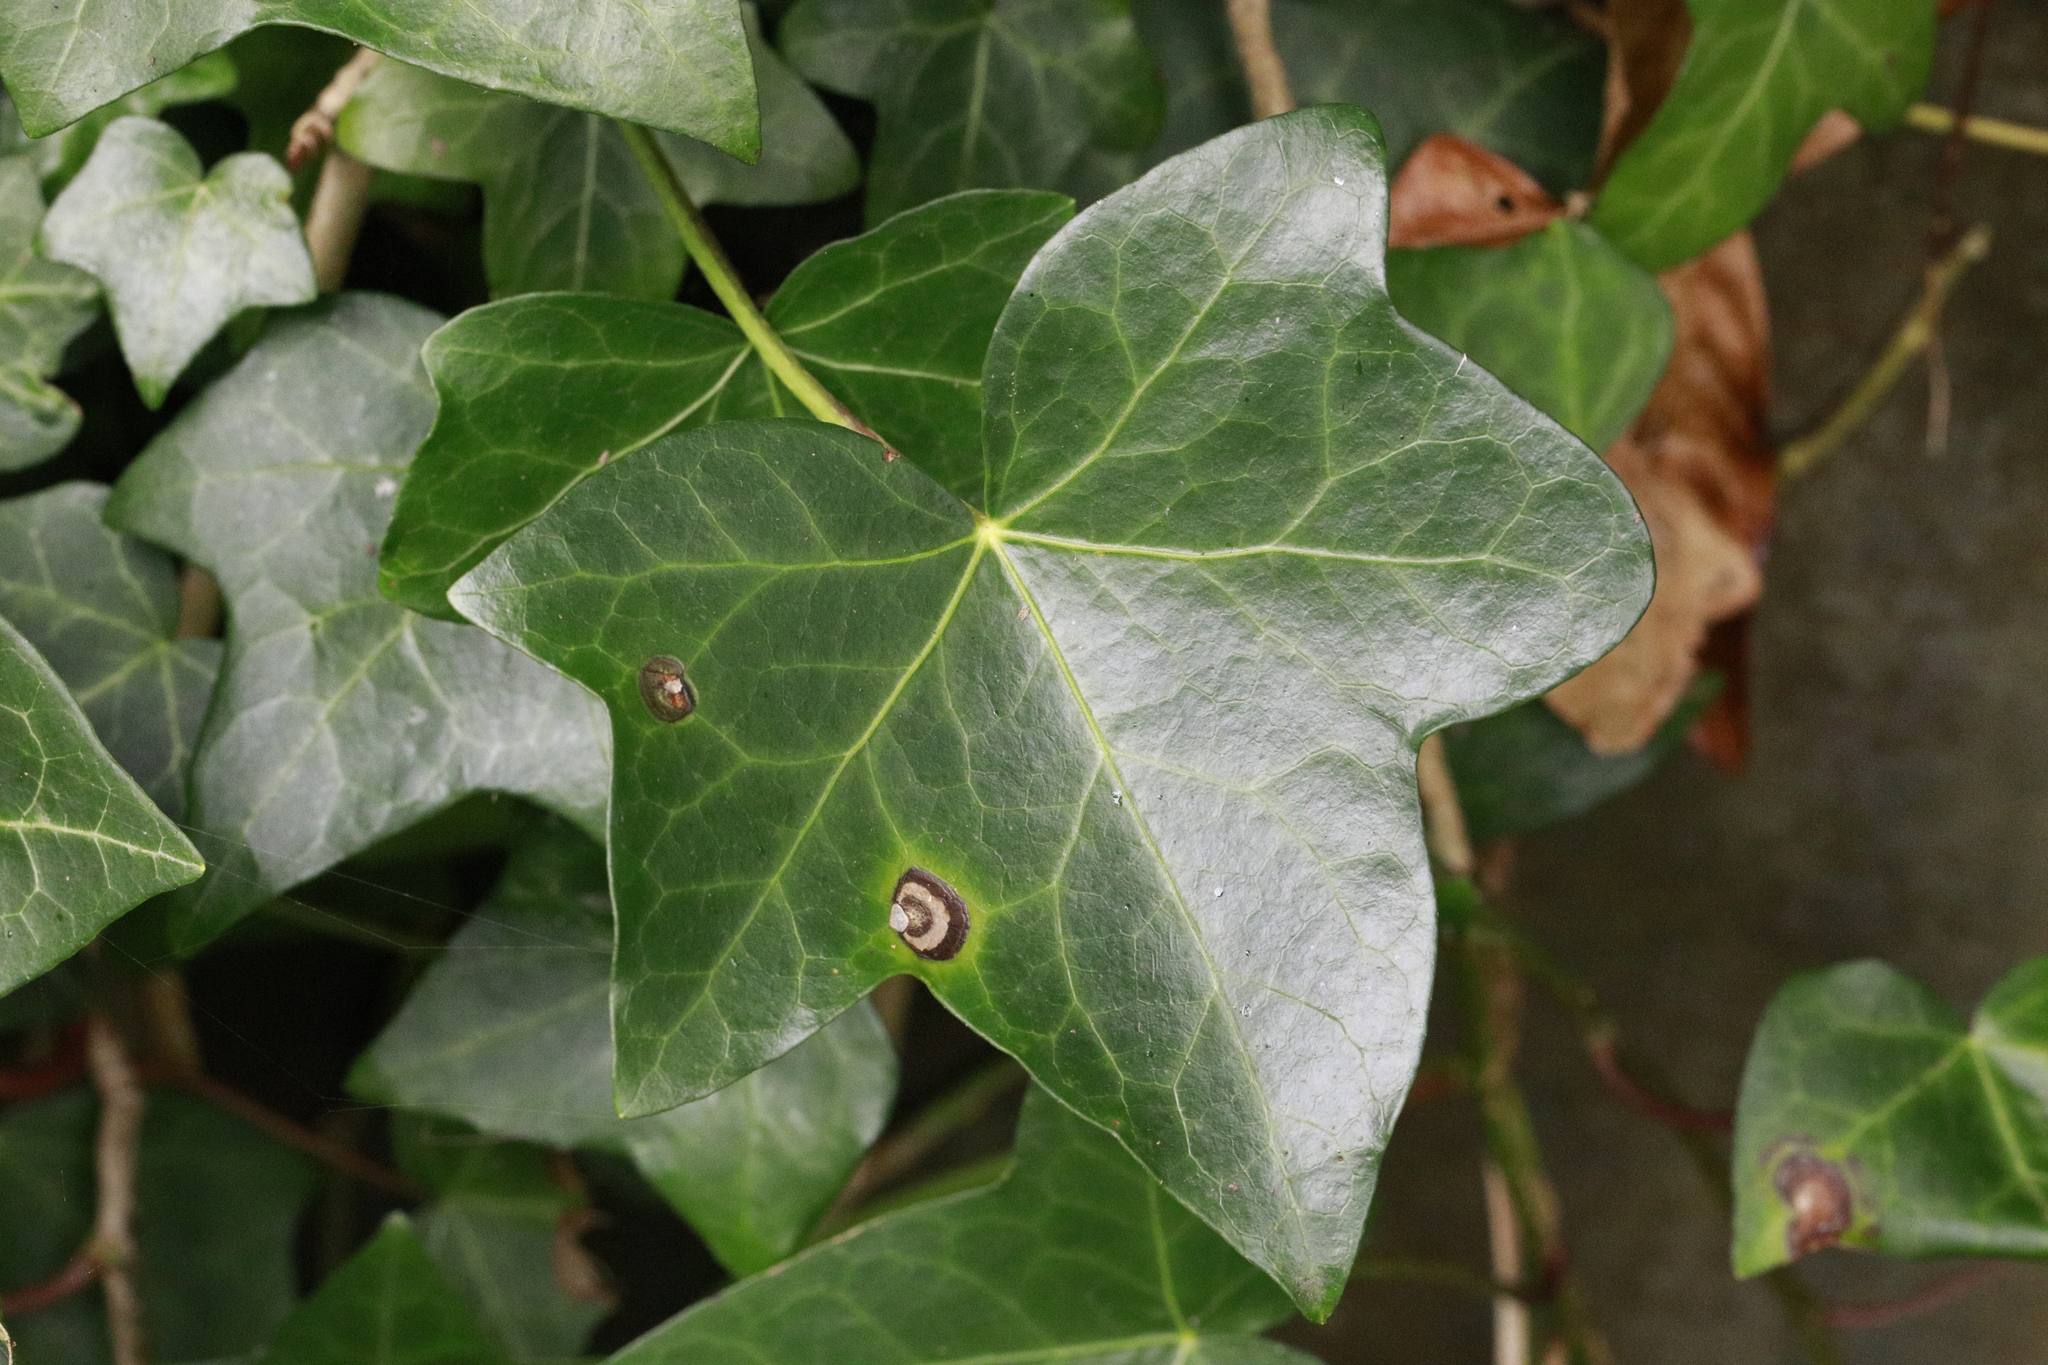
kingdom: Plantae
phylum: Tracheophyta
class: Magnoliopsida
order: Apiales
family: Araliaceae
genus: Hedera
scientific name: Hedera helix
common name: Ivy
